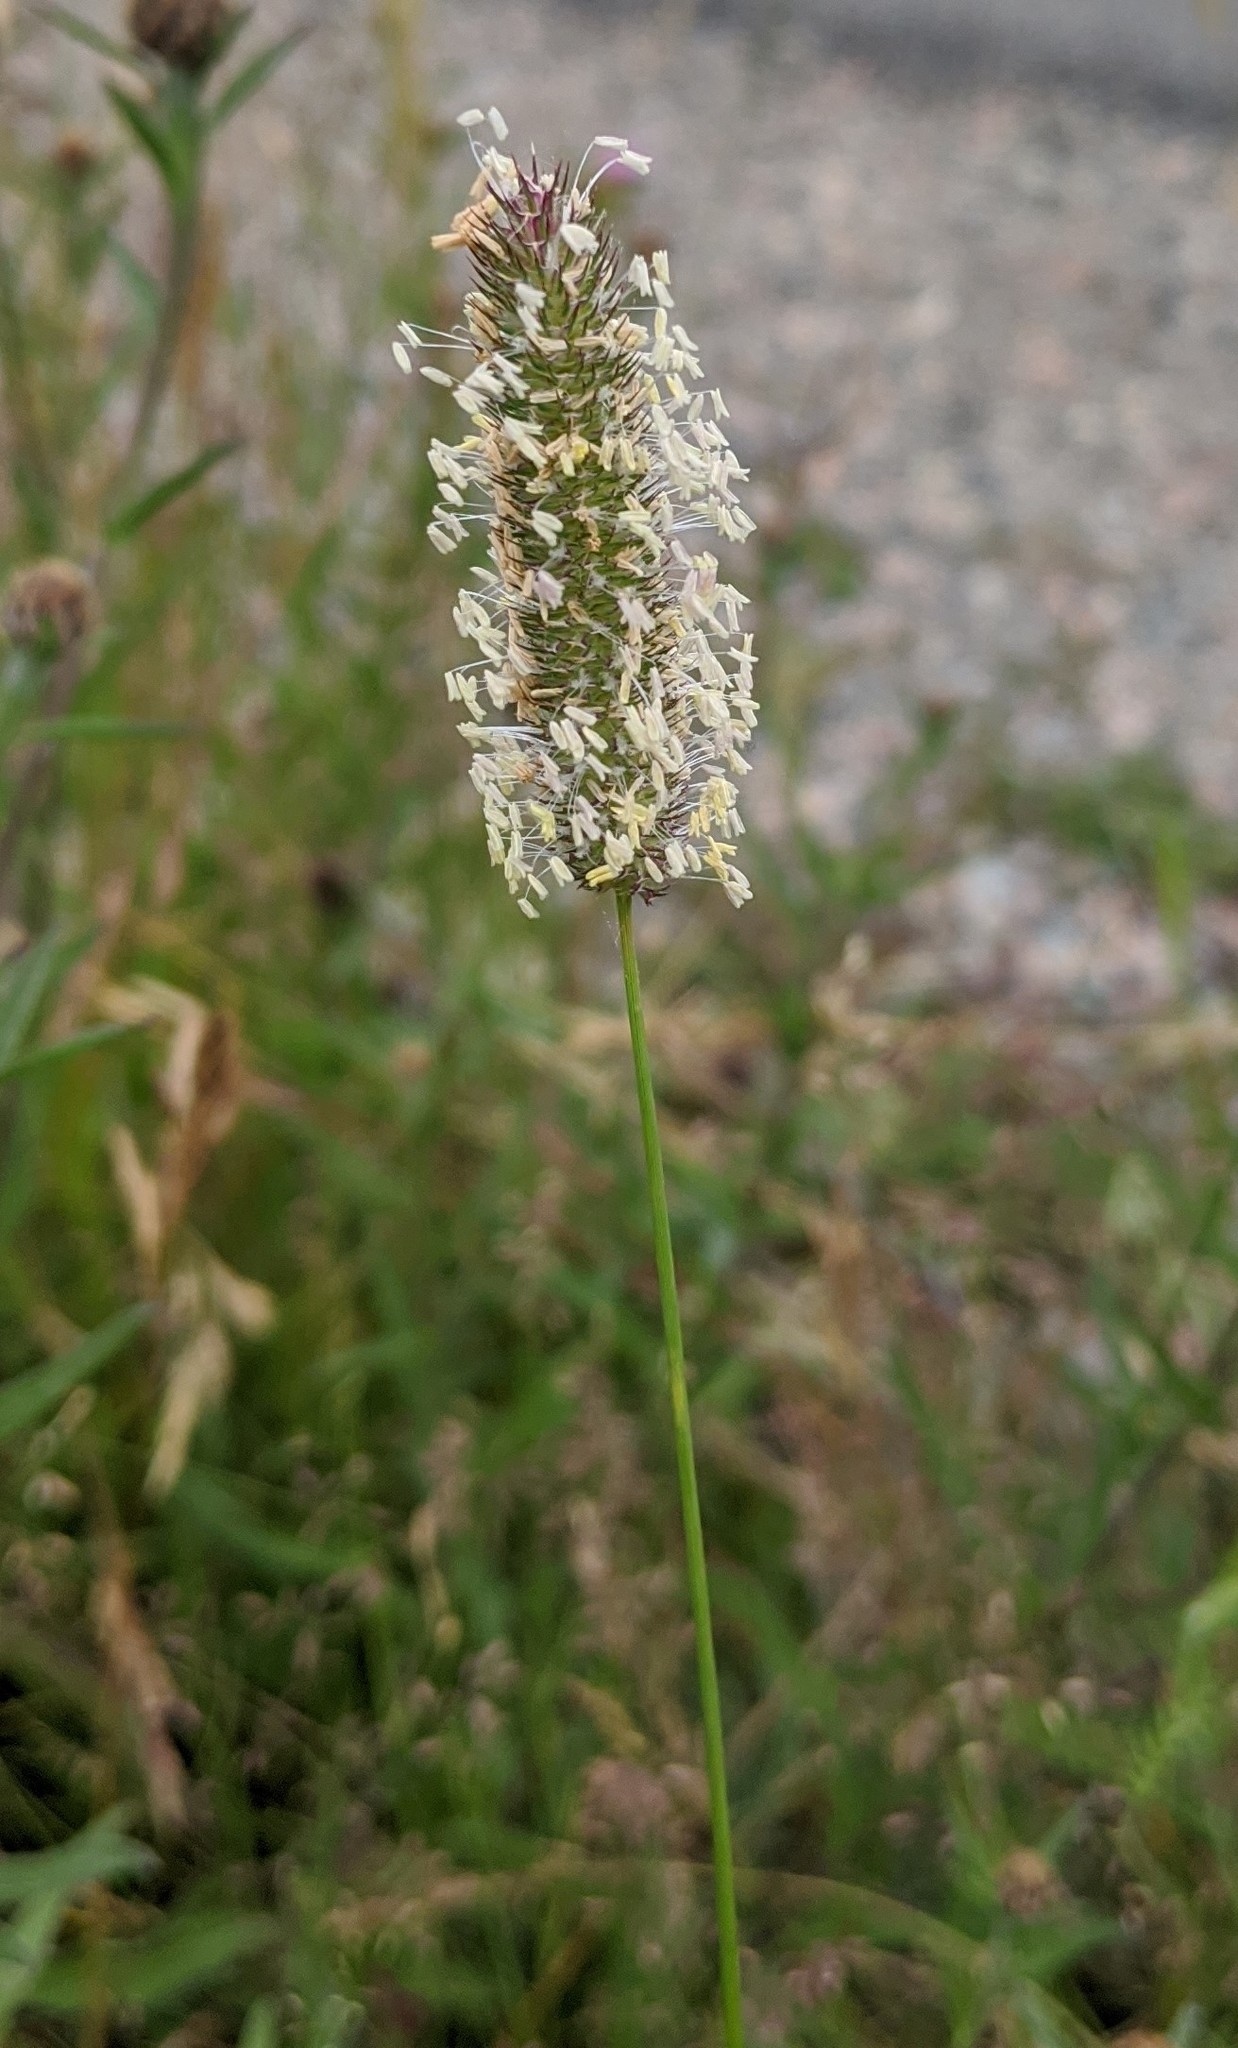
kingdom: Plantae
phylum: Tracheophyta
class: Liliopsida
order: Poales
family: Poaceae
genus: Phleum
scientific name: Phleum pratense
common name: Timothy grass
